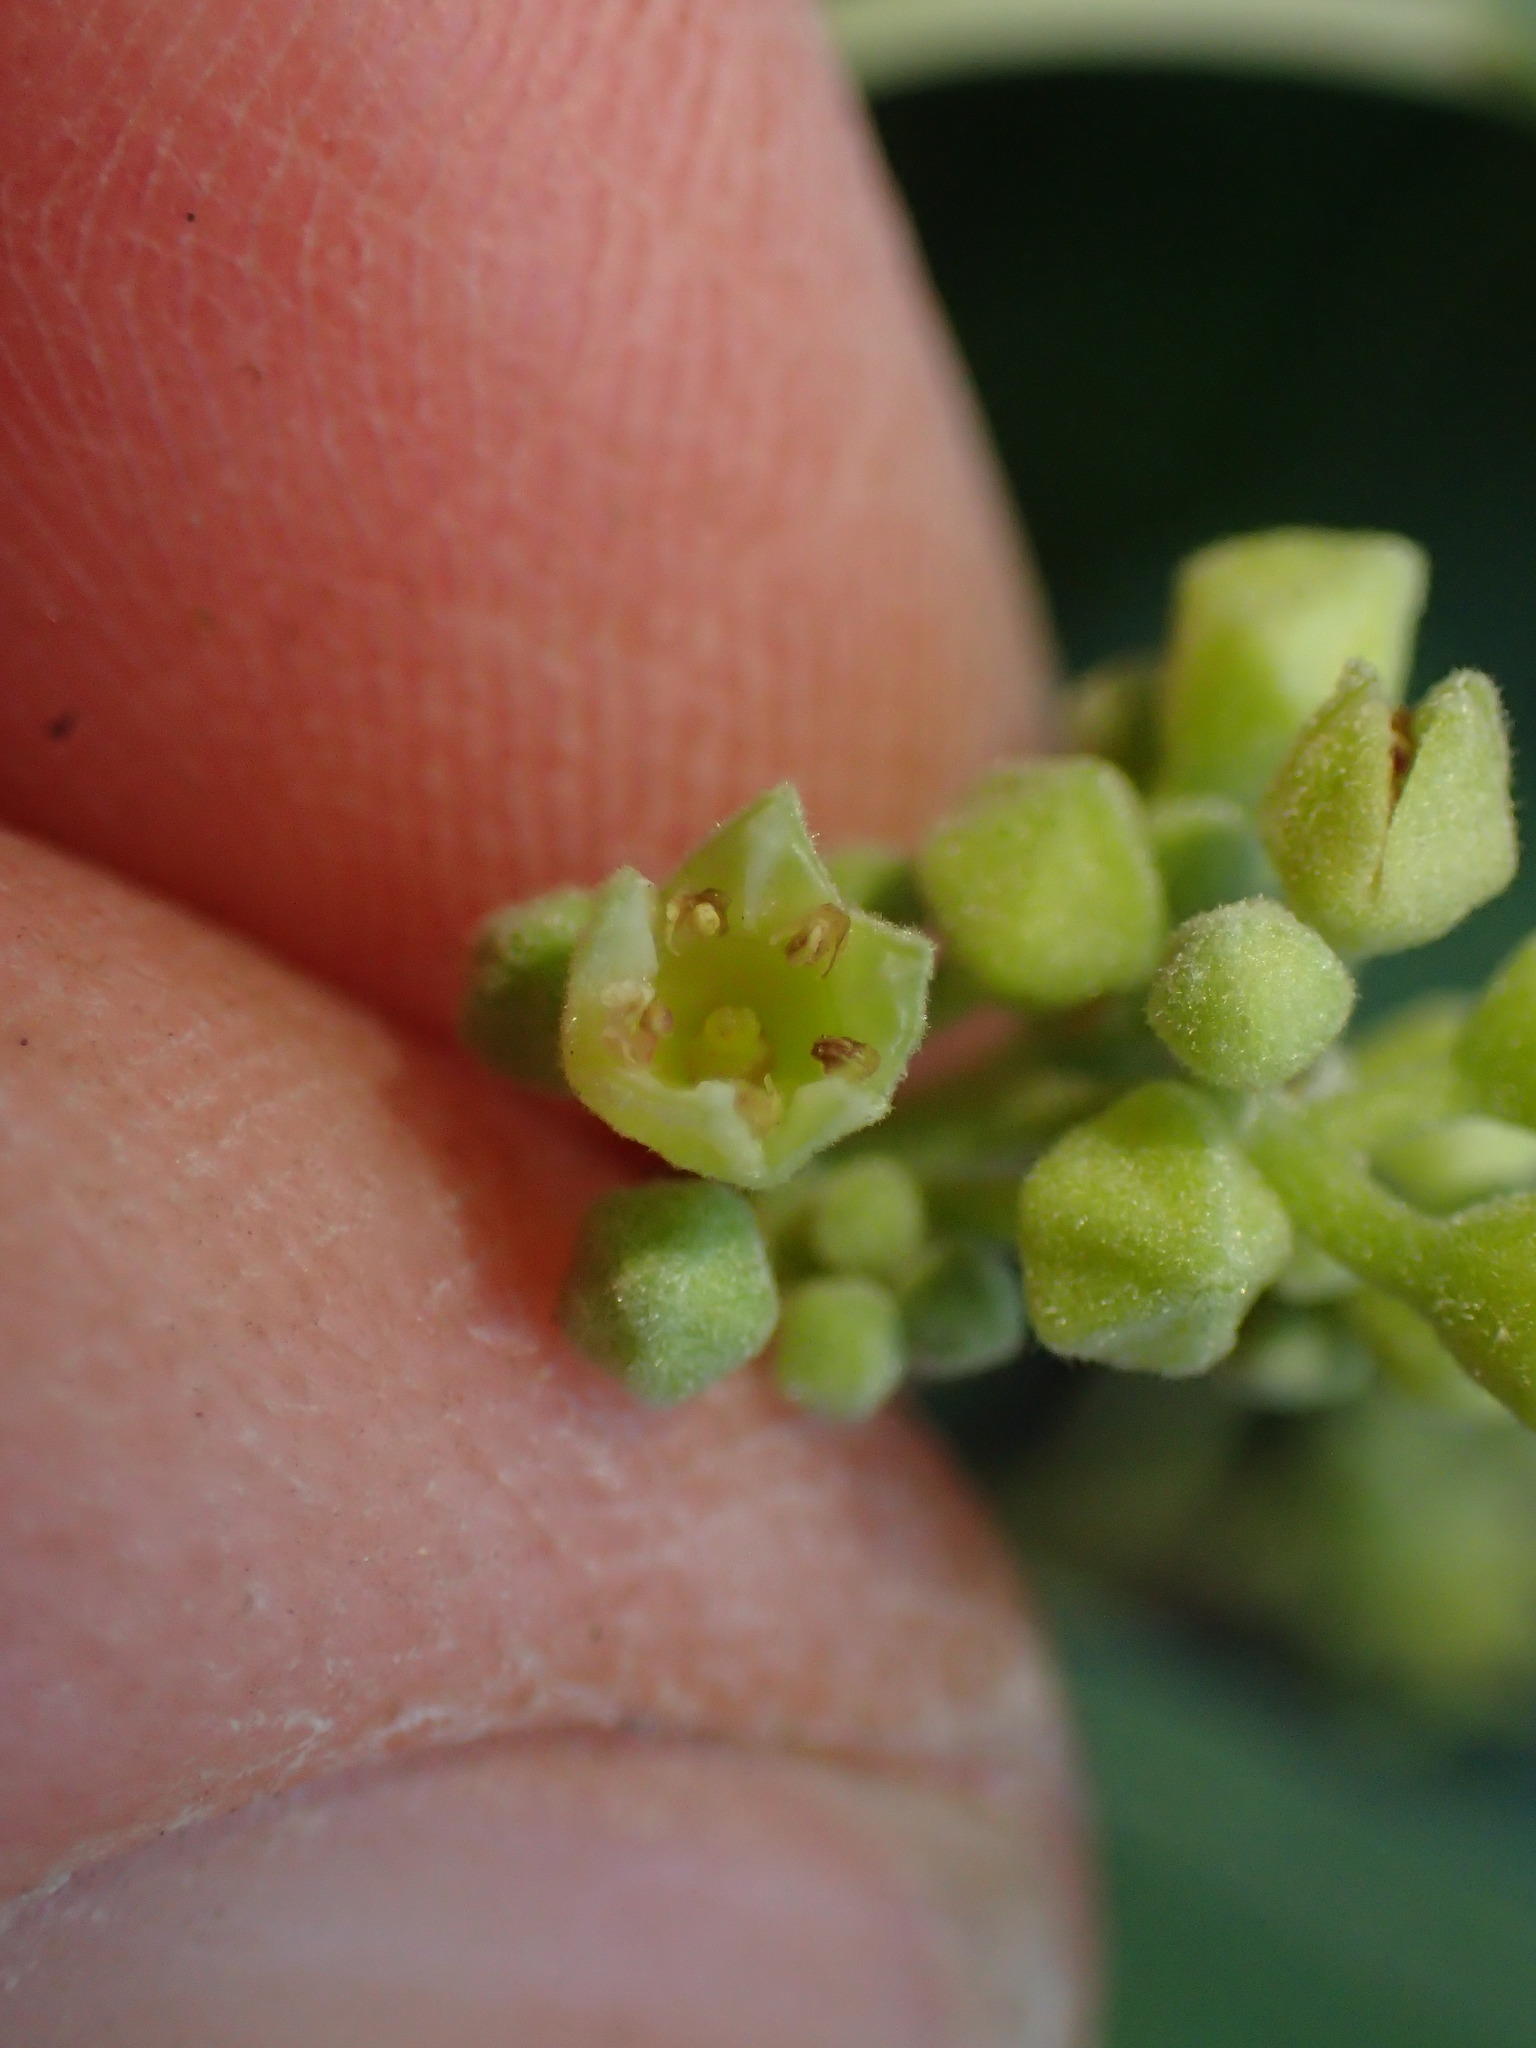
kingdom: Plantae
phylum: Tracheophyta
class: Magnoliopsida
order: Rosales
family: Rhamnaceae
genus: Frangula
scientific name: Frangula californica
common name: California buckthorn
